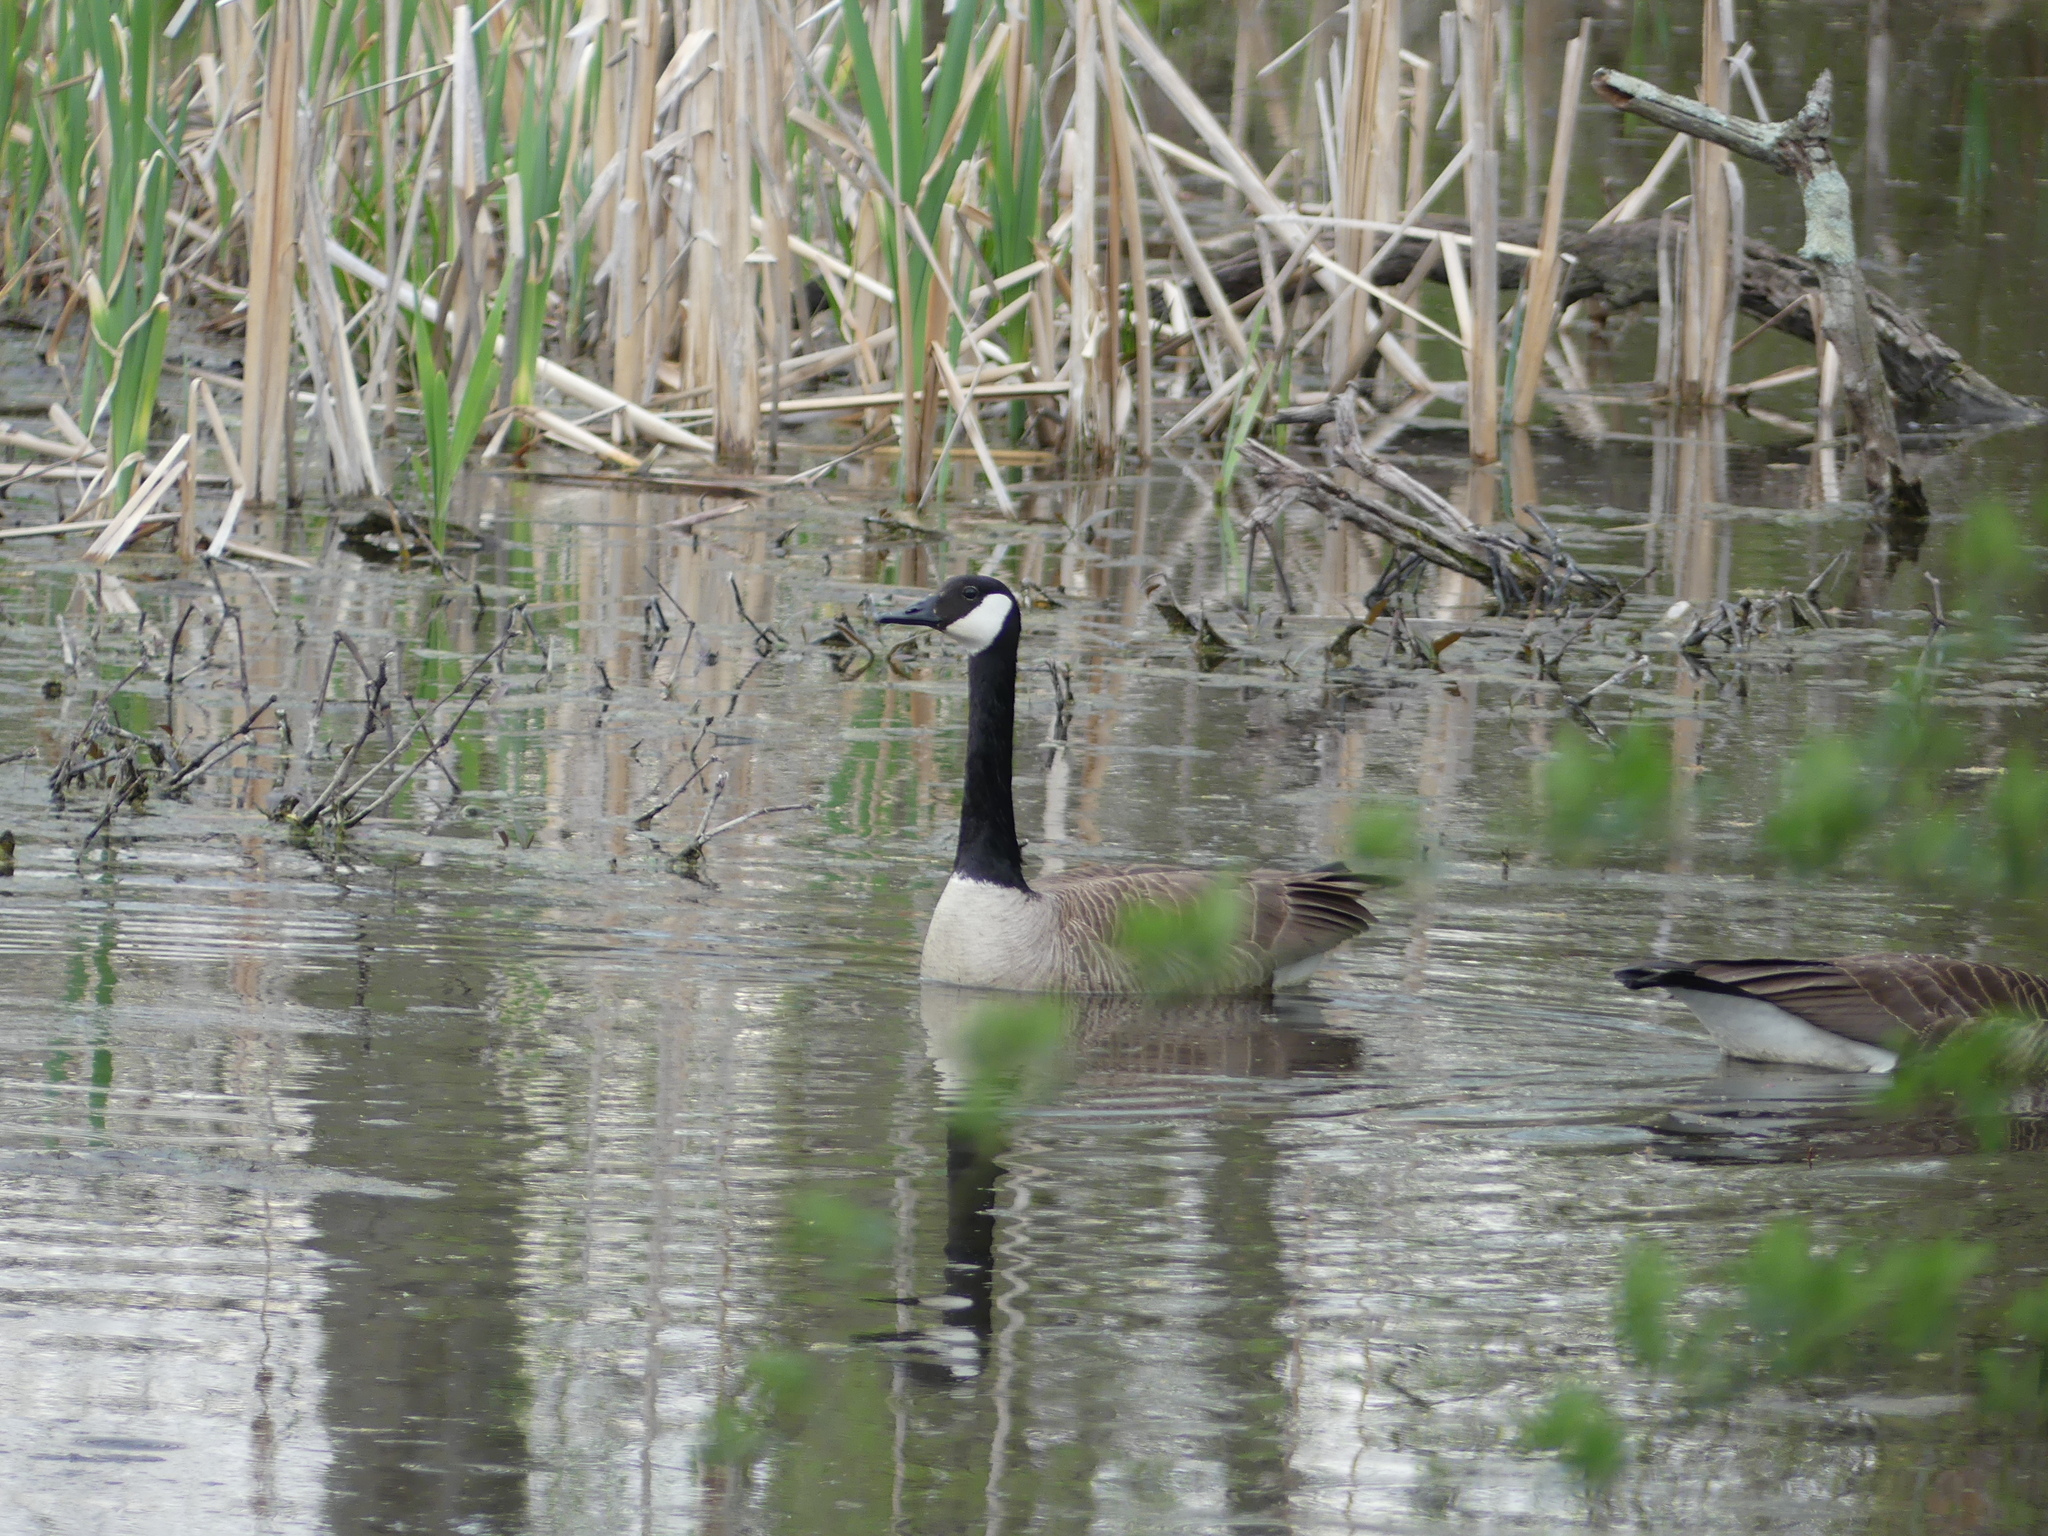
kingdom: Animalia
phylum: Chordata
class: Aves
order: Anseriformes
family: Anatidae
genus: Branta
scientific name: Branta canadensis
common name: Canada goose
